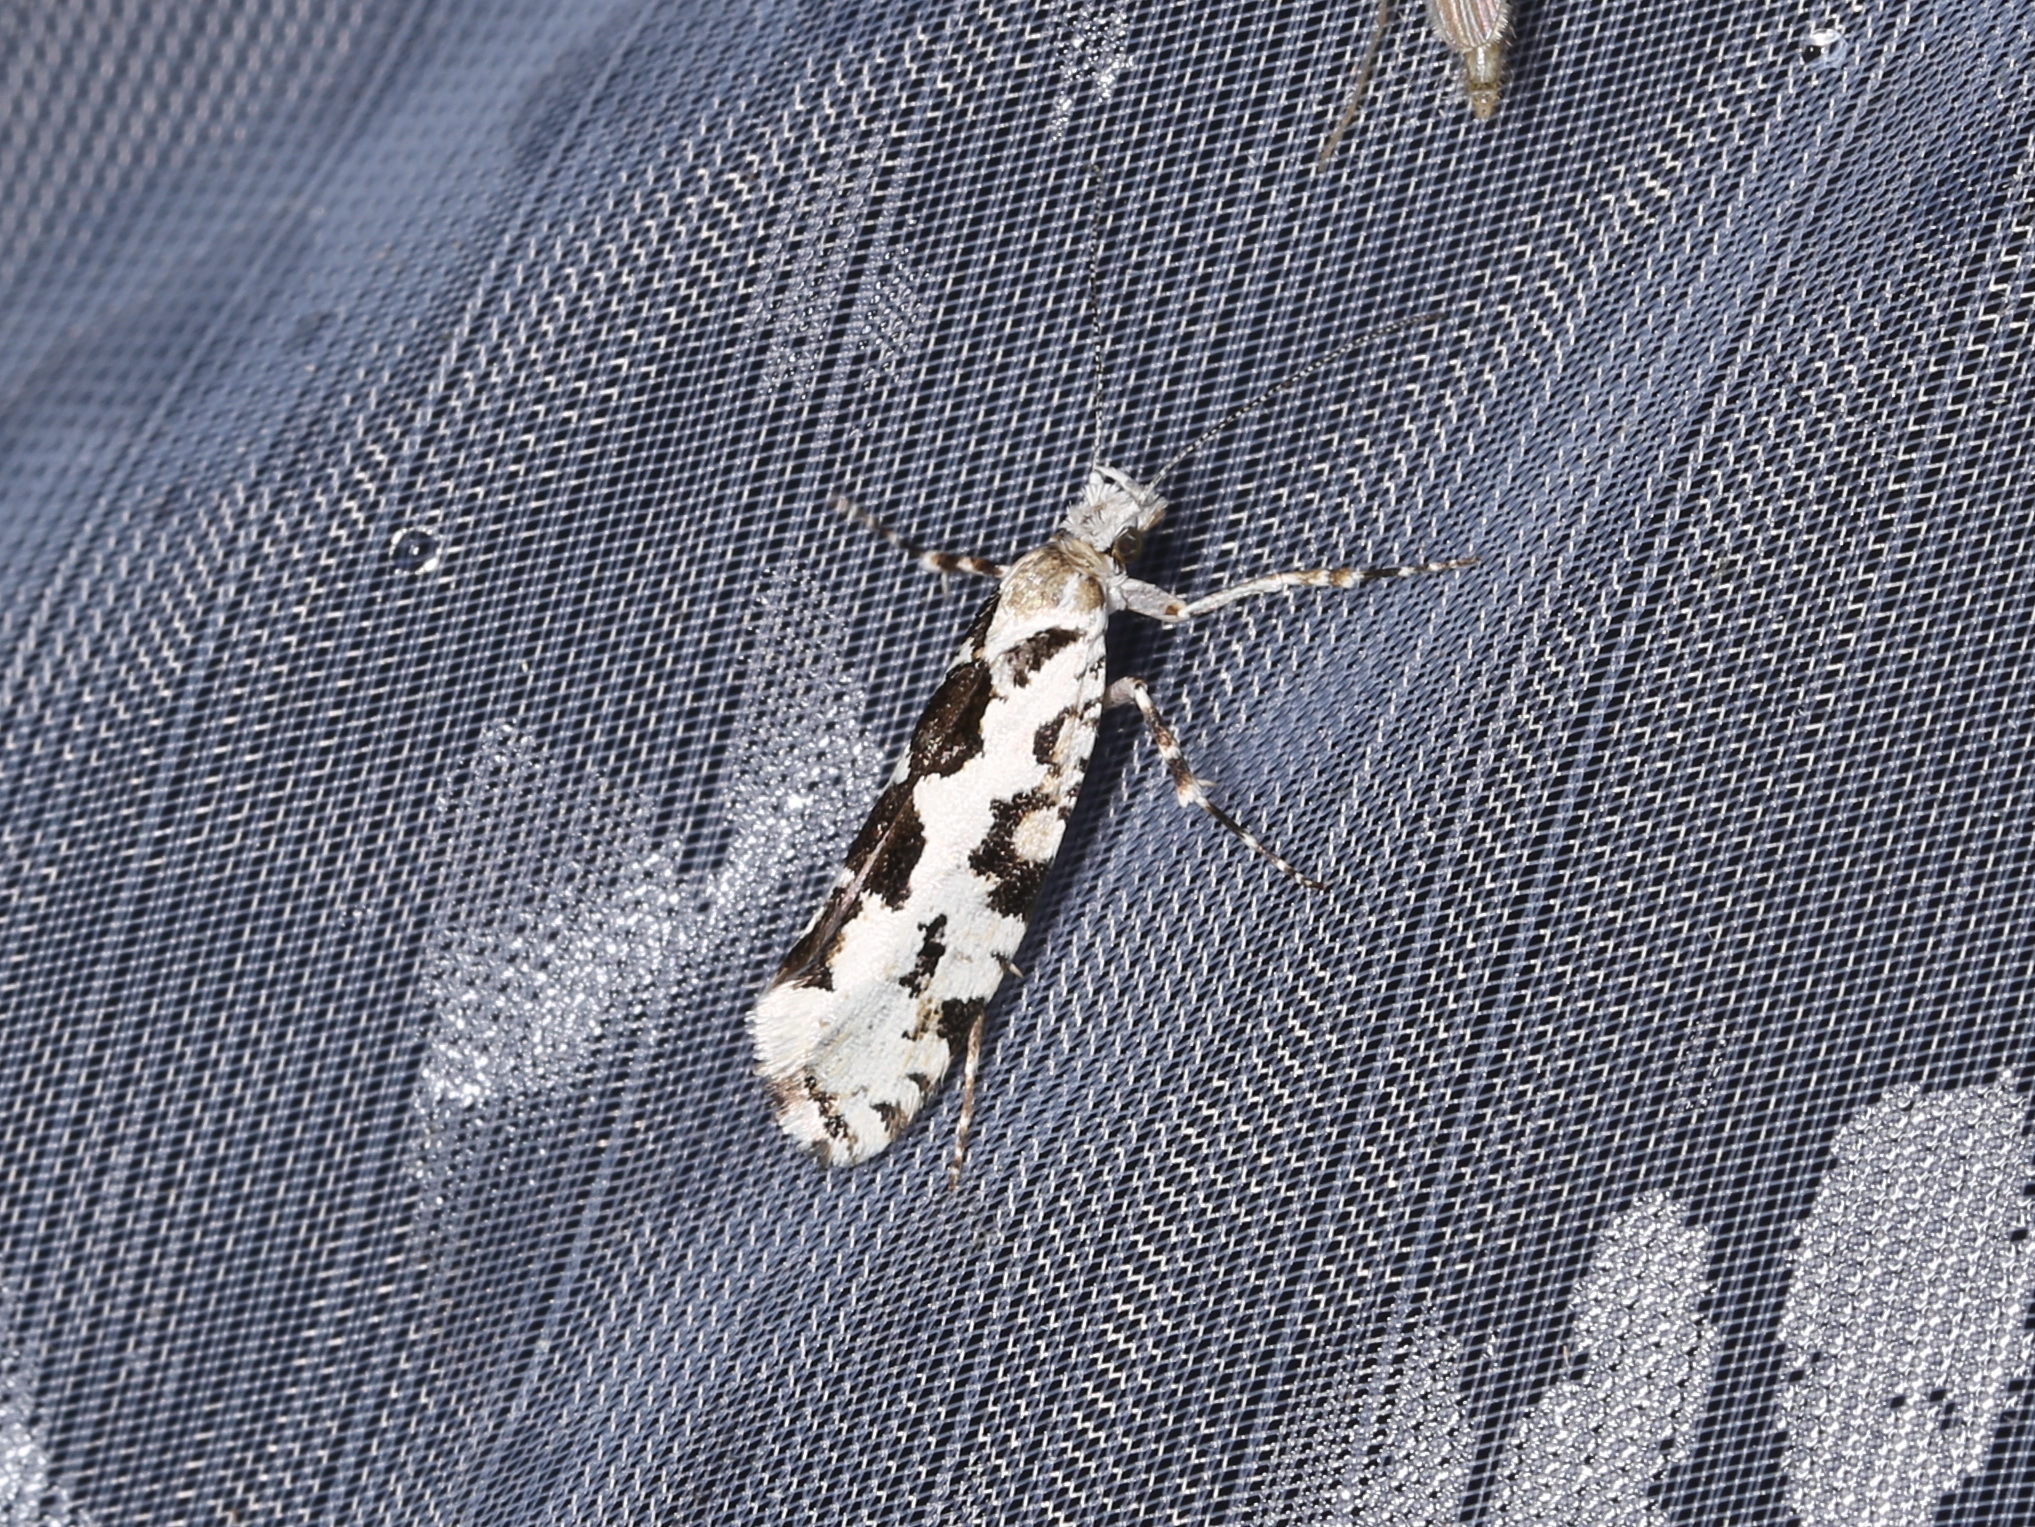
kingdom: Animalia
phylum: Arthropoda
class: Insecta
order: Lepidoptera
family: Plutellidae
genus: Ypsolophus
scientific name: Ypsolophus sequella
